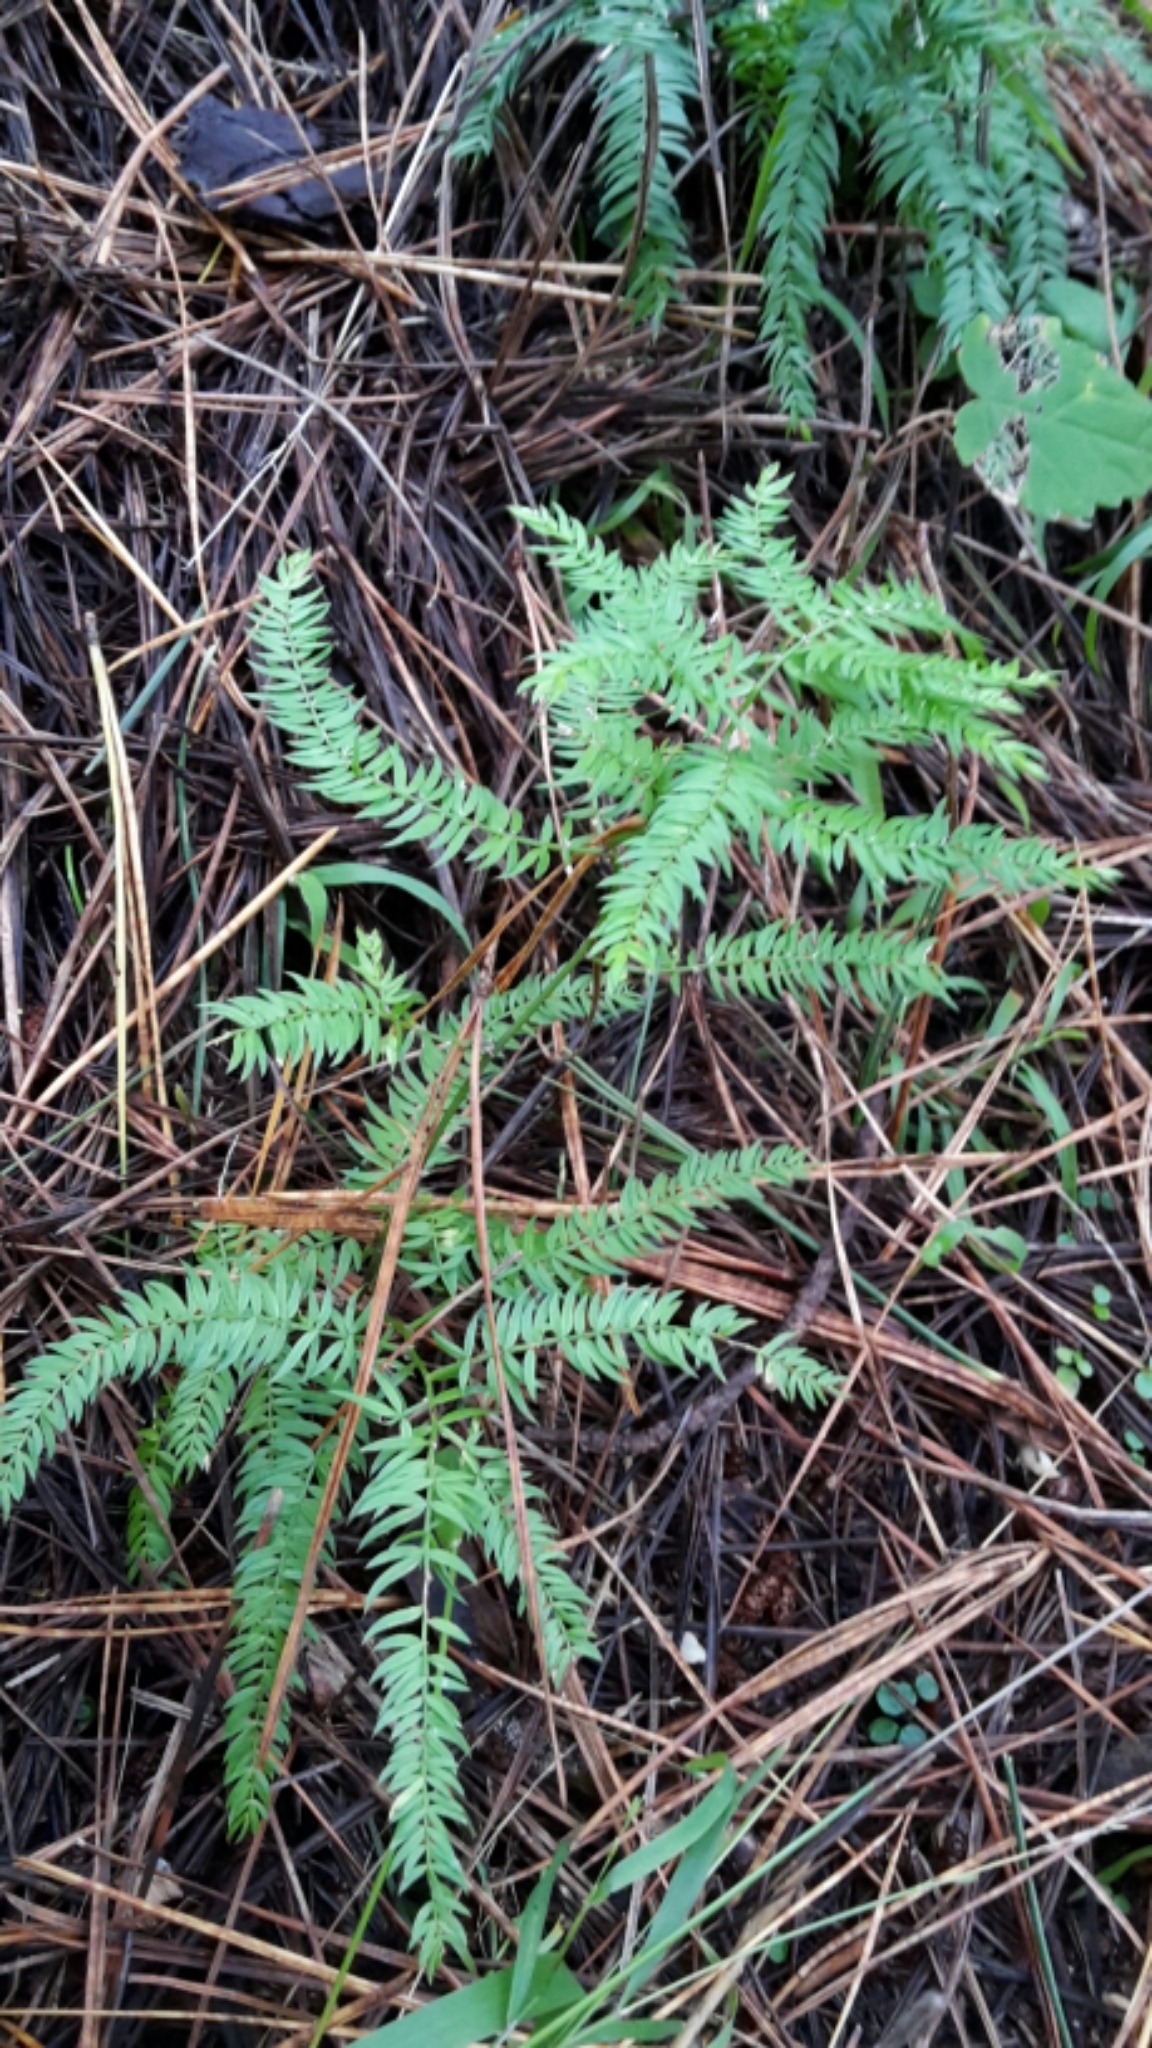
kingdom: Plantae
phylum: Tracheophyta
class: Liliopsida
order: Asparagales
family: Asparagaceae
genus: Asparagus
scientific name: Asparagus scandens
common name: Asparagus-fern
